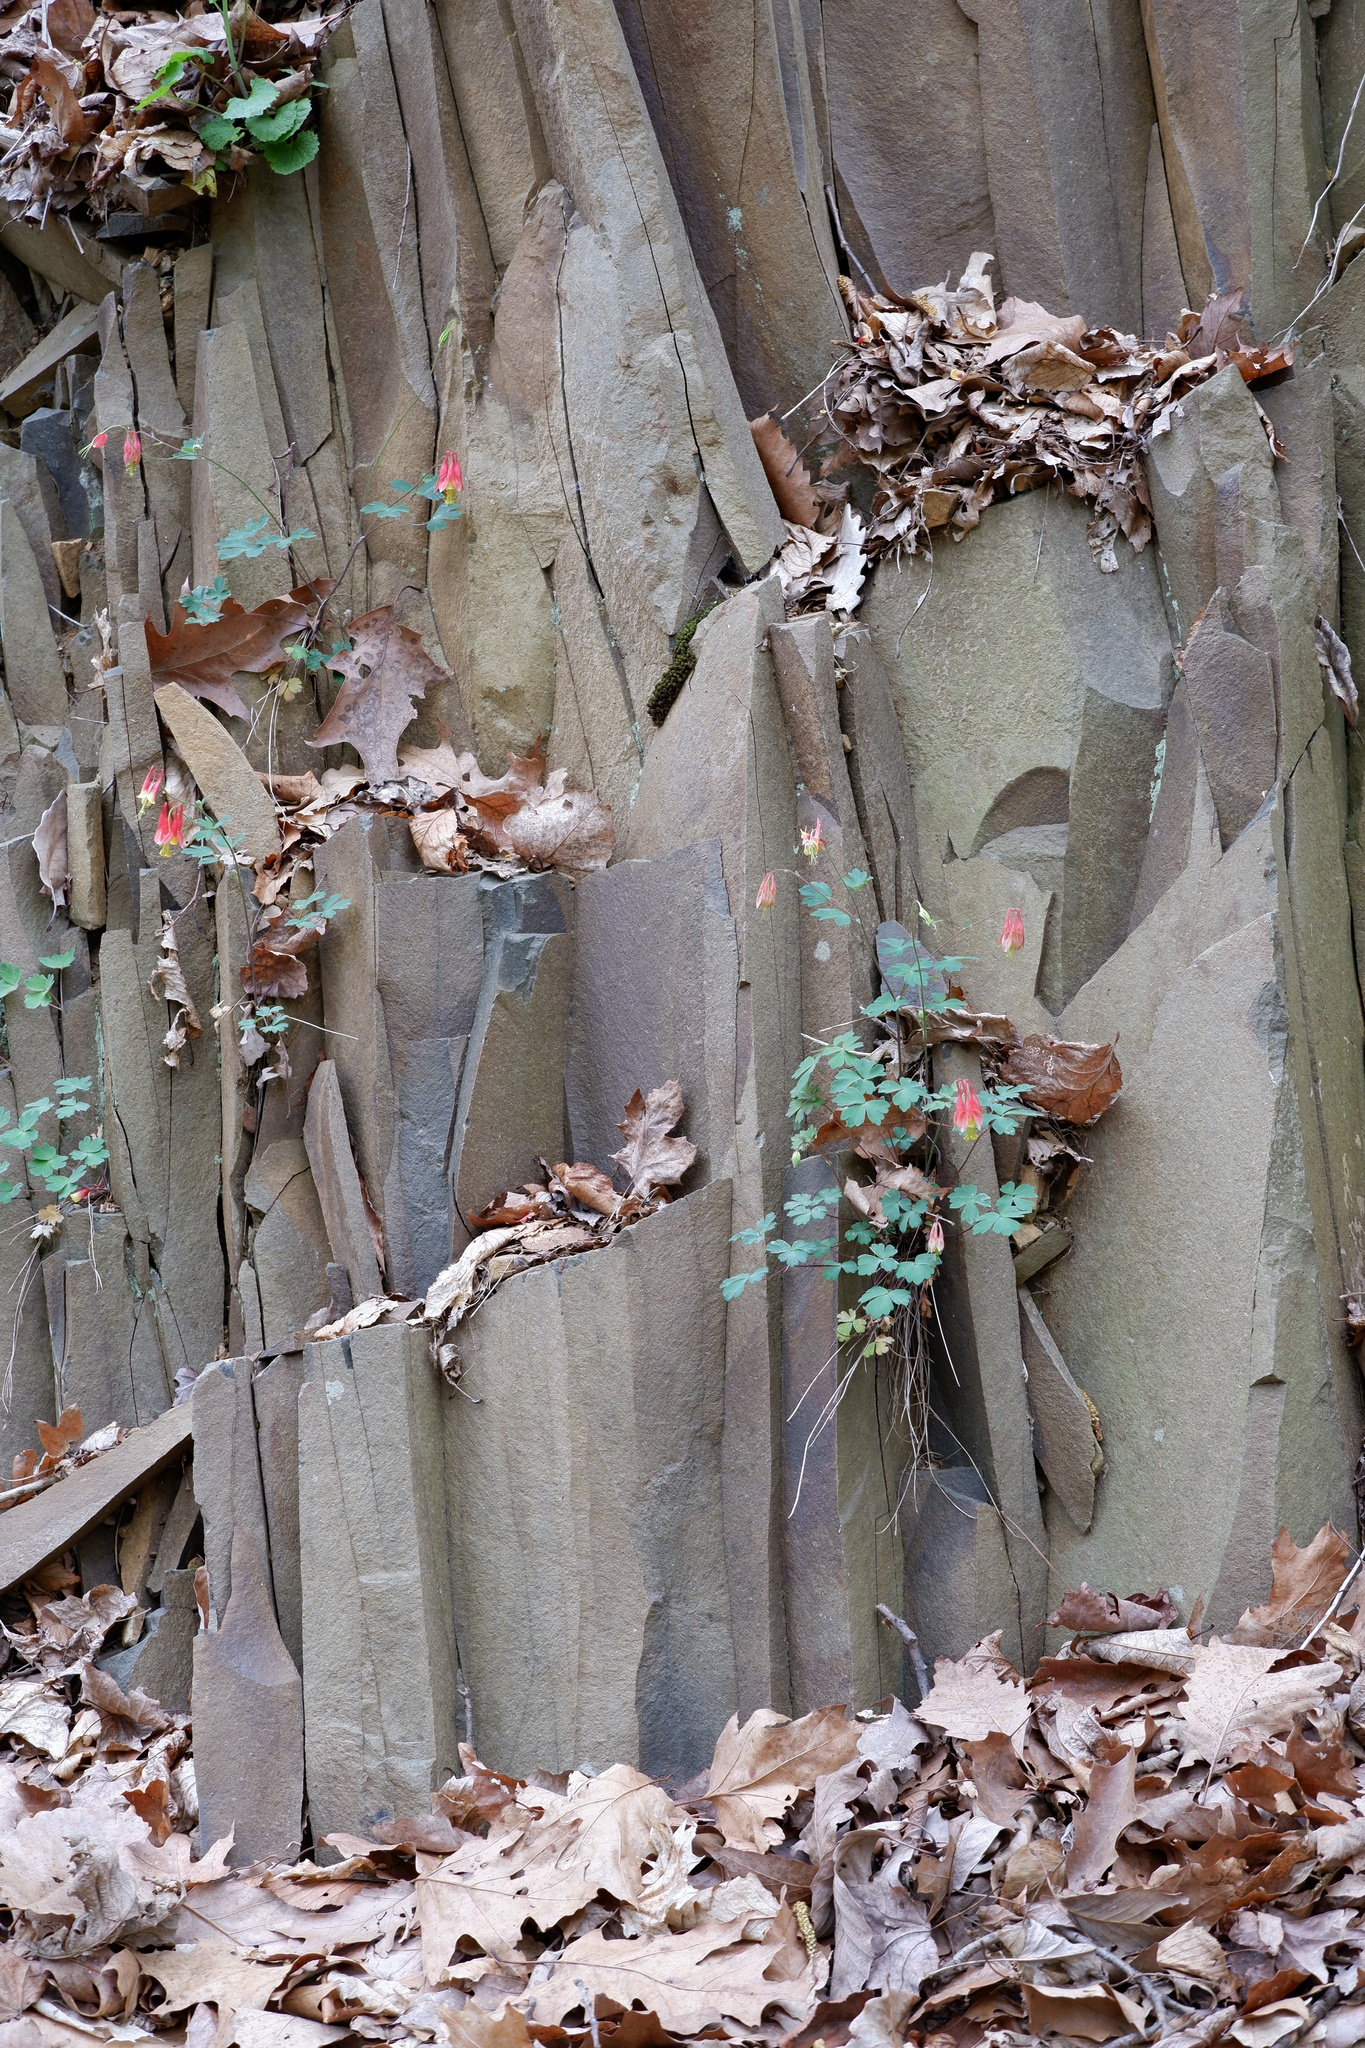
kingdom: Plantae
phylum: Tracheophyta
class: Magnoliopsida
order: Ranunculales
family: Ranunculaceae
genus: Aquilegia
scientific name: Aquilegia canadensis
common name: American columbine
